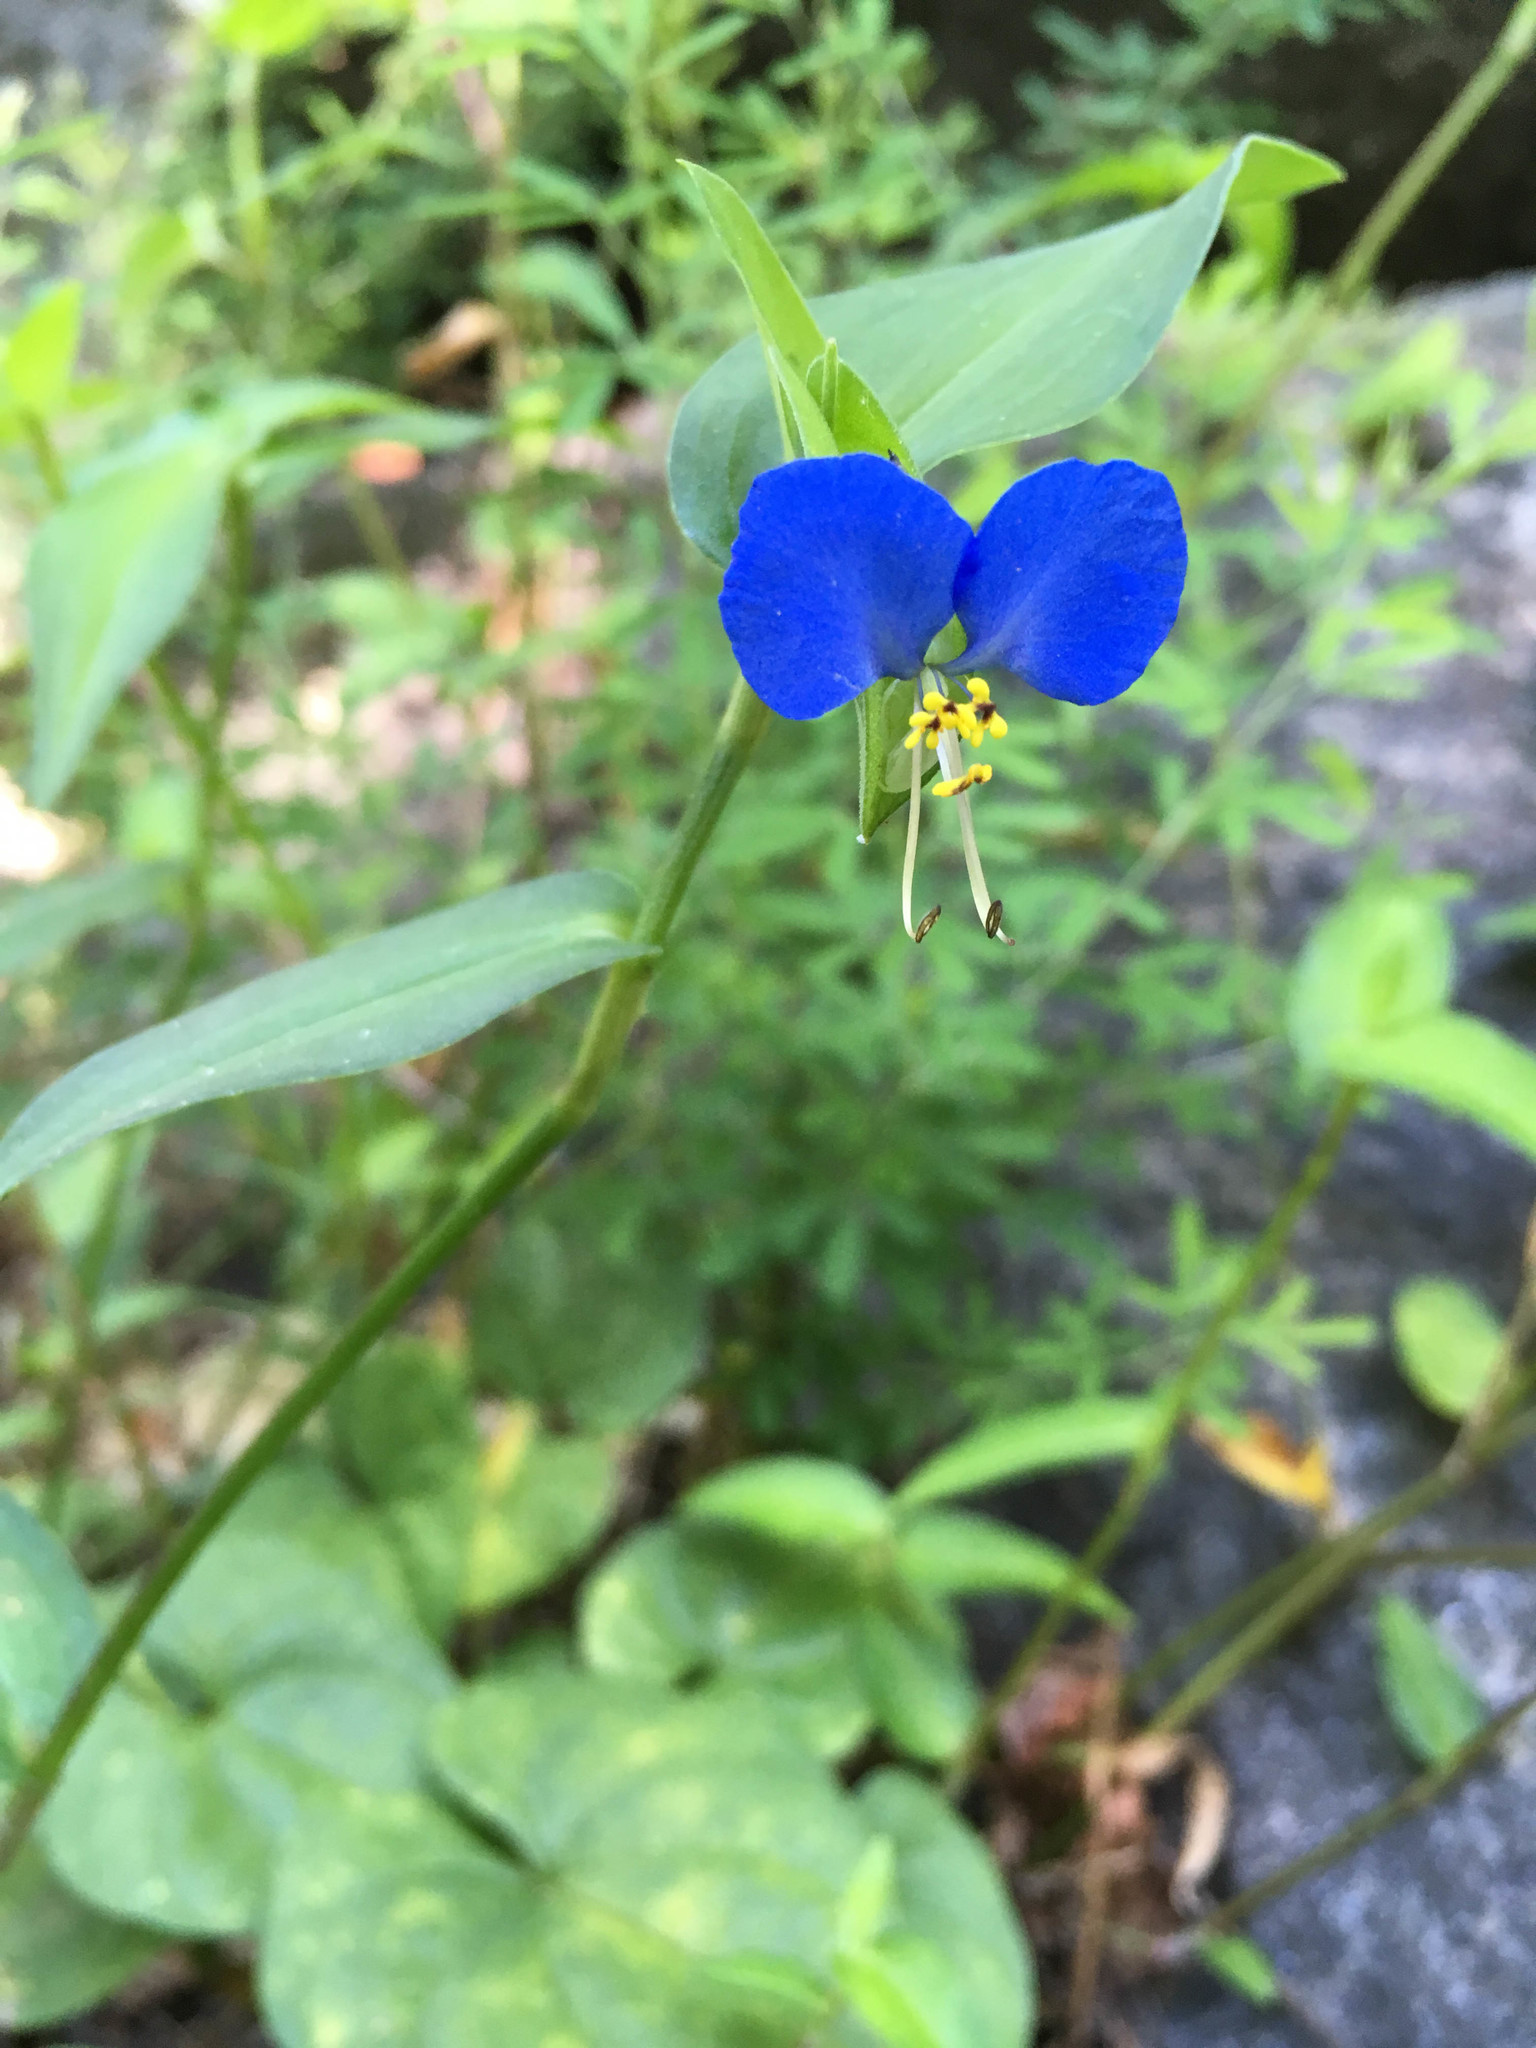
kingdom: Plantae
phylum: Tracheophyta
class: Liliopsida
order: Commelinales
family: Commelinaceae
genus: Commelina
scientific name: Commelina communis
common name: Asiatic dayflower
